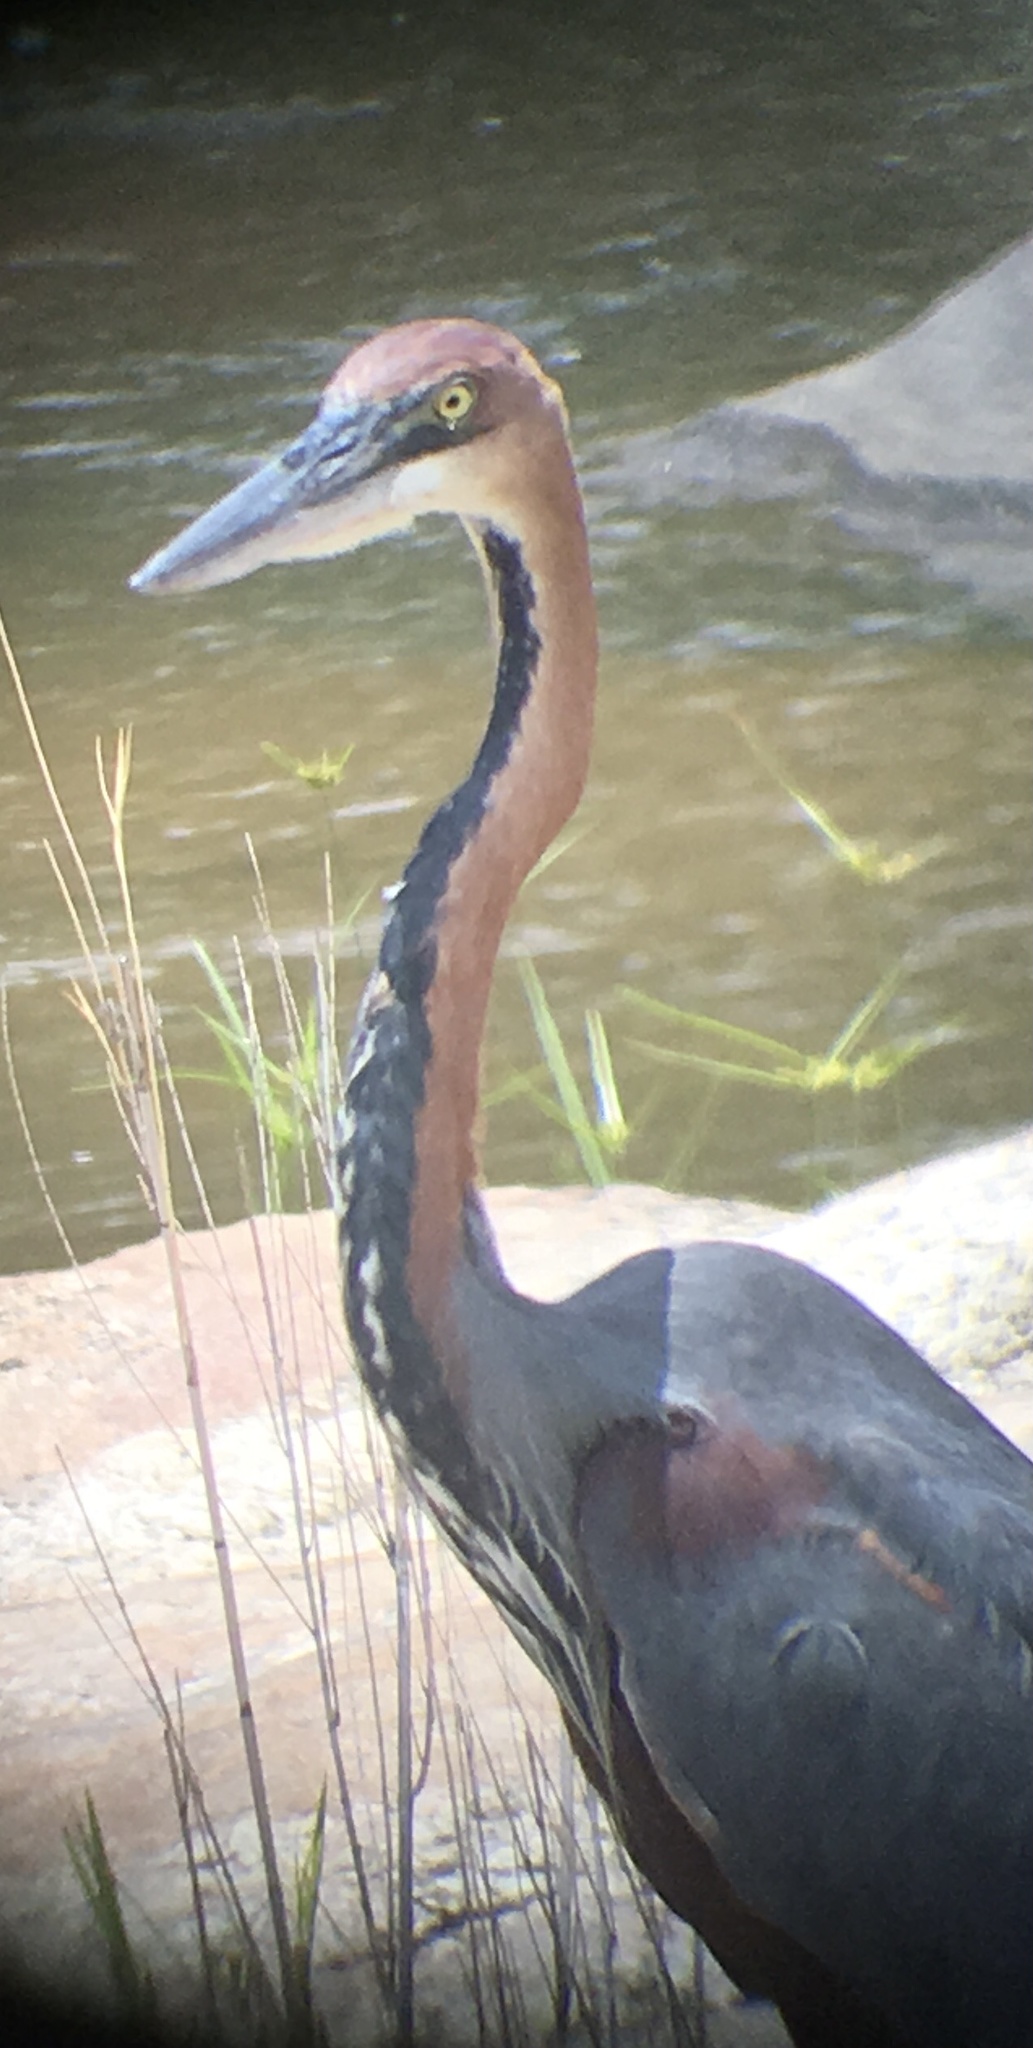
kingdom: Animalia
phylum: Chordata
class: Aves
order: Pelecaniformes
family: Ardeidae
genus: Ardea
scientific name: Ardea goliath
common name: Goliath heron
